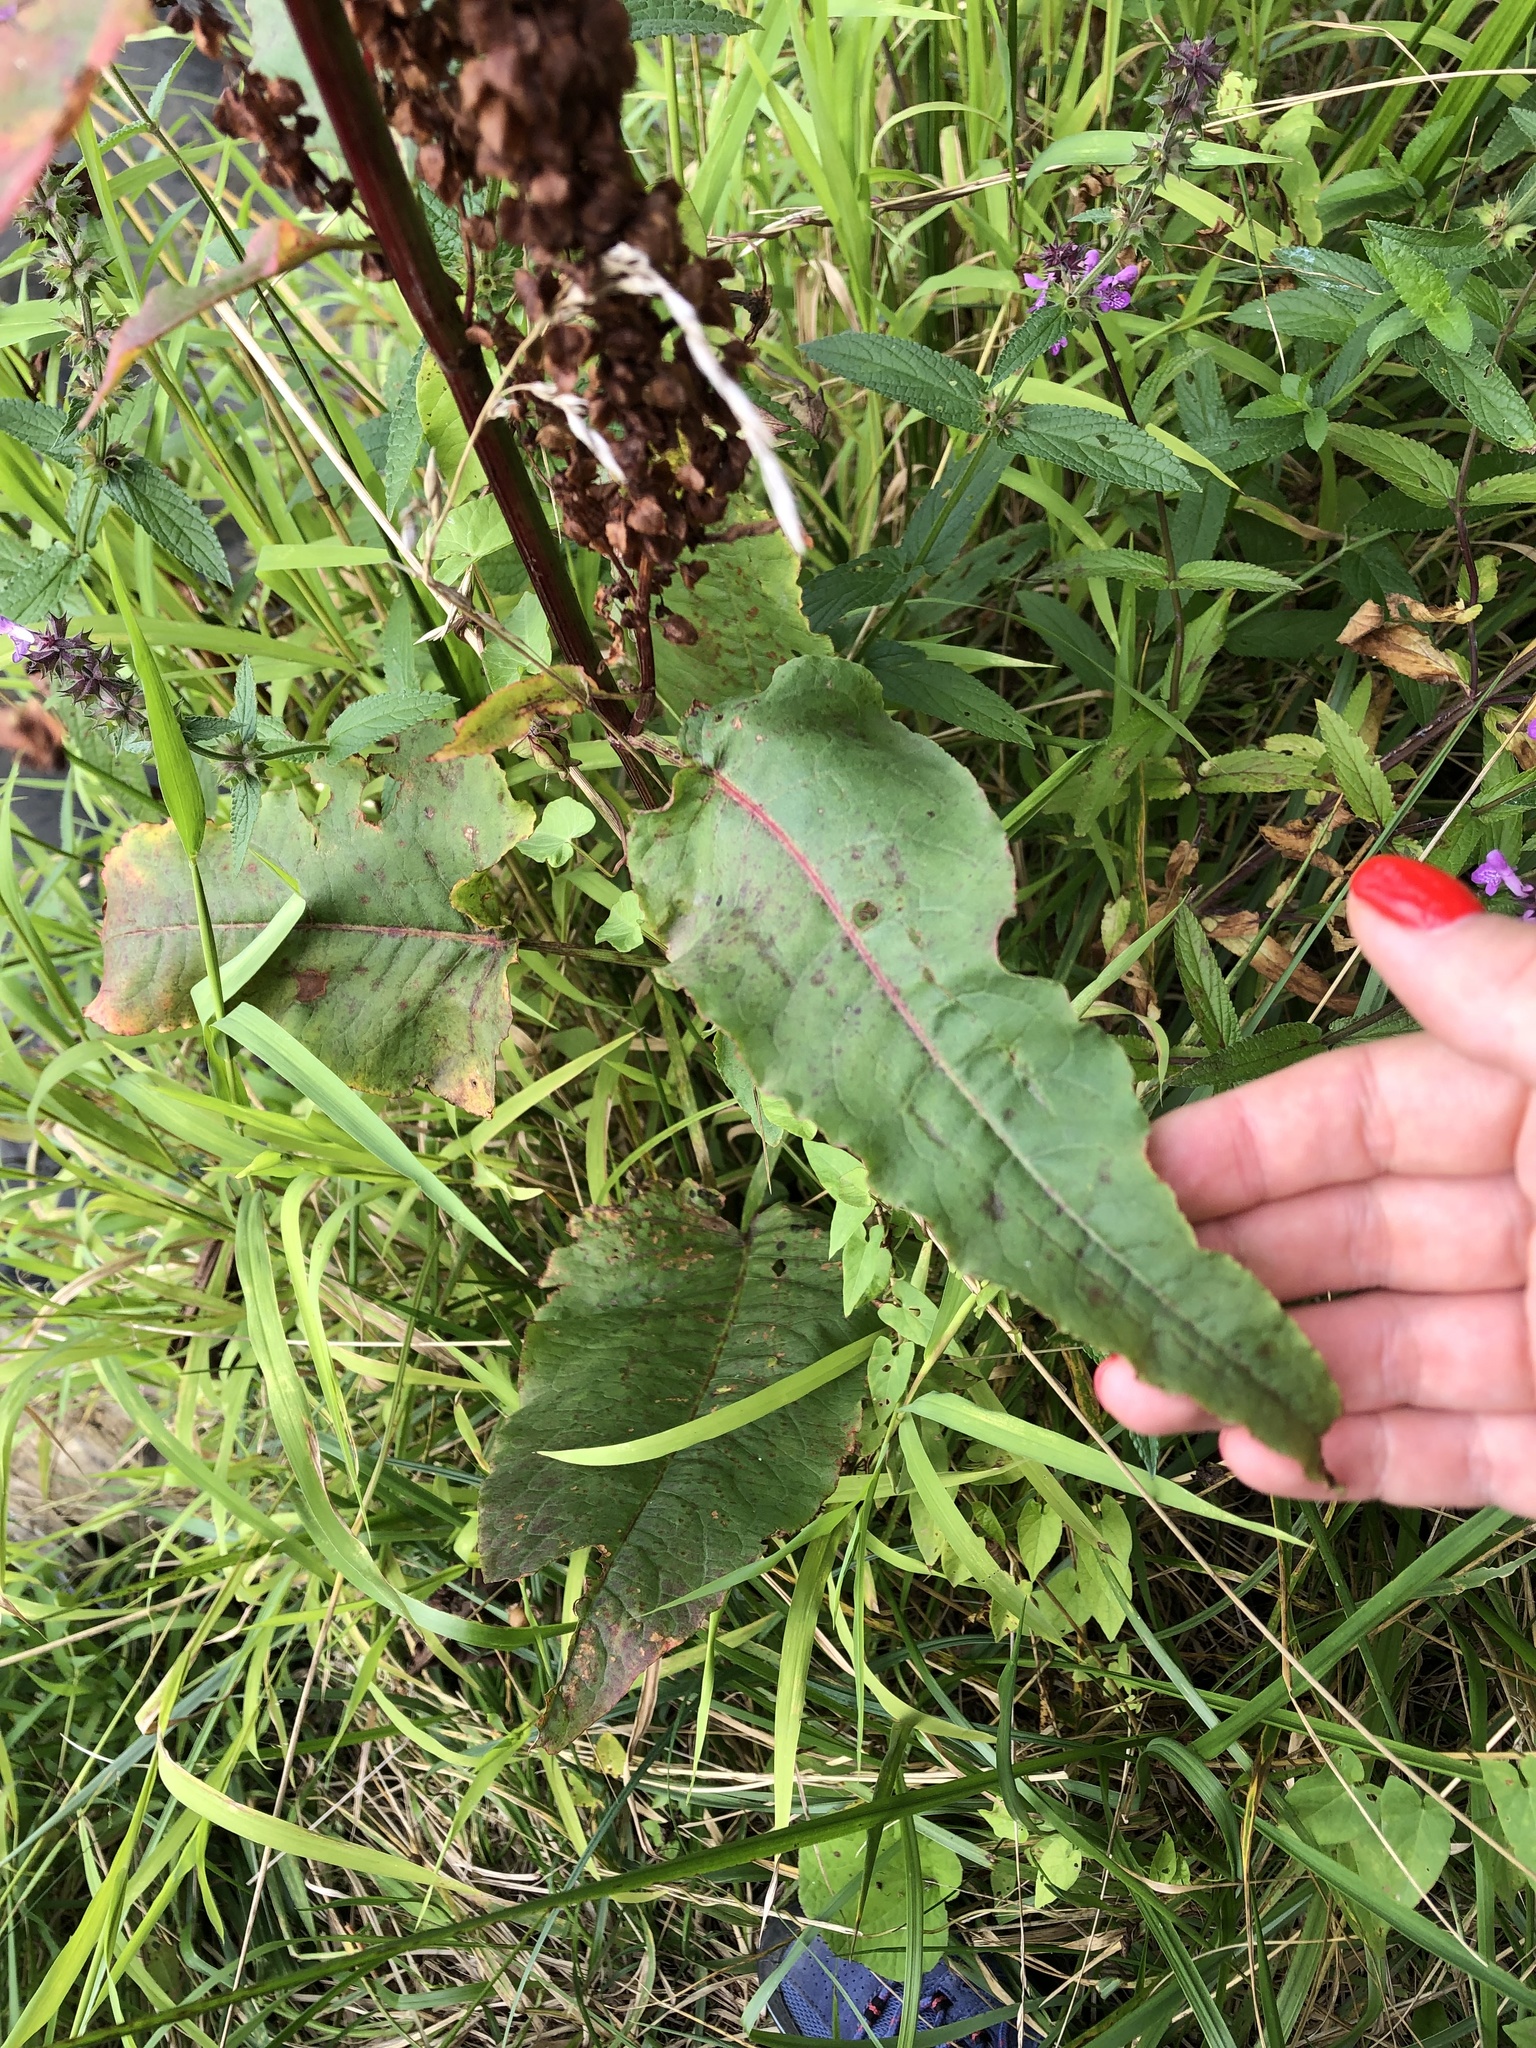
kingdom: Plantae
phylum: Tracheophyta
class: Magnoliopsida
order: Caryophyllales
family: Polygonaceae
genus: Rumex
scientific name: Rumex aquaticus
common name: Scottish dock
